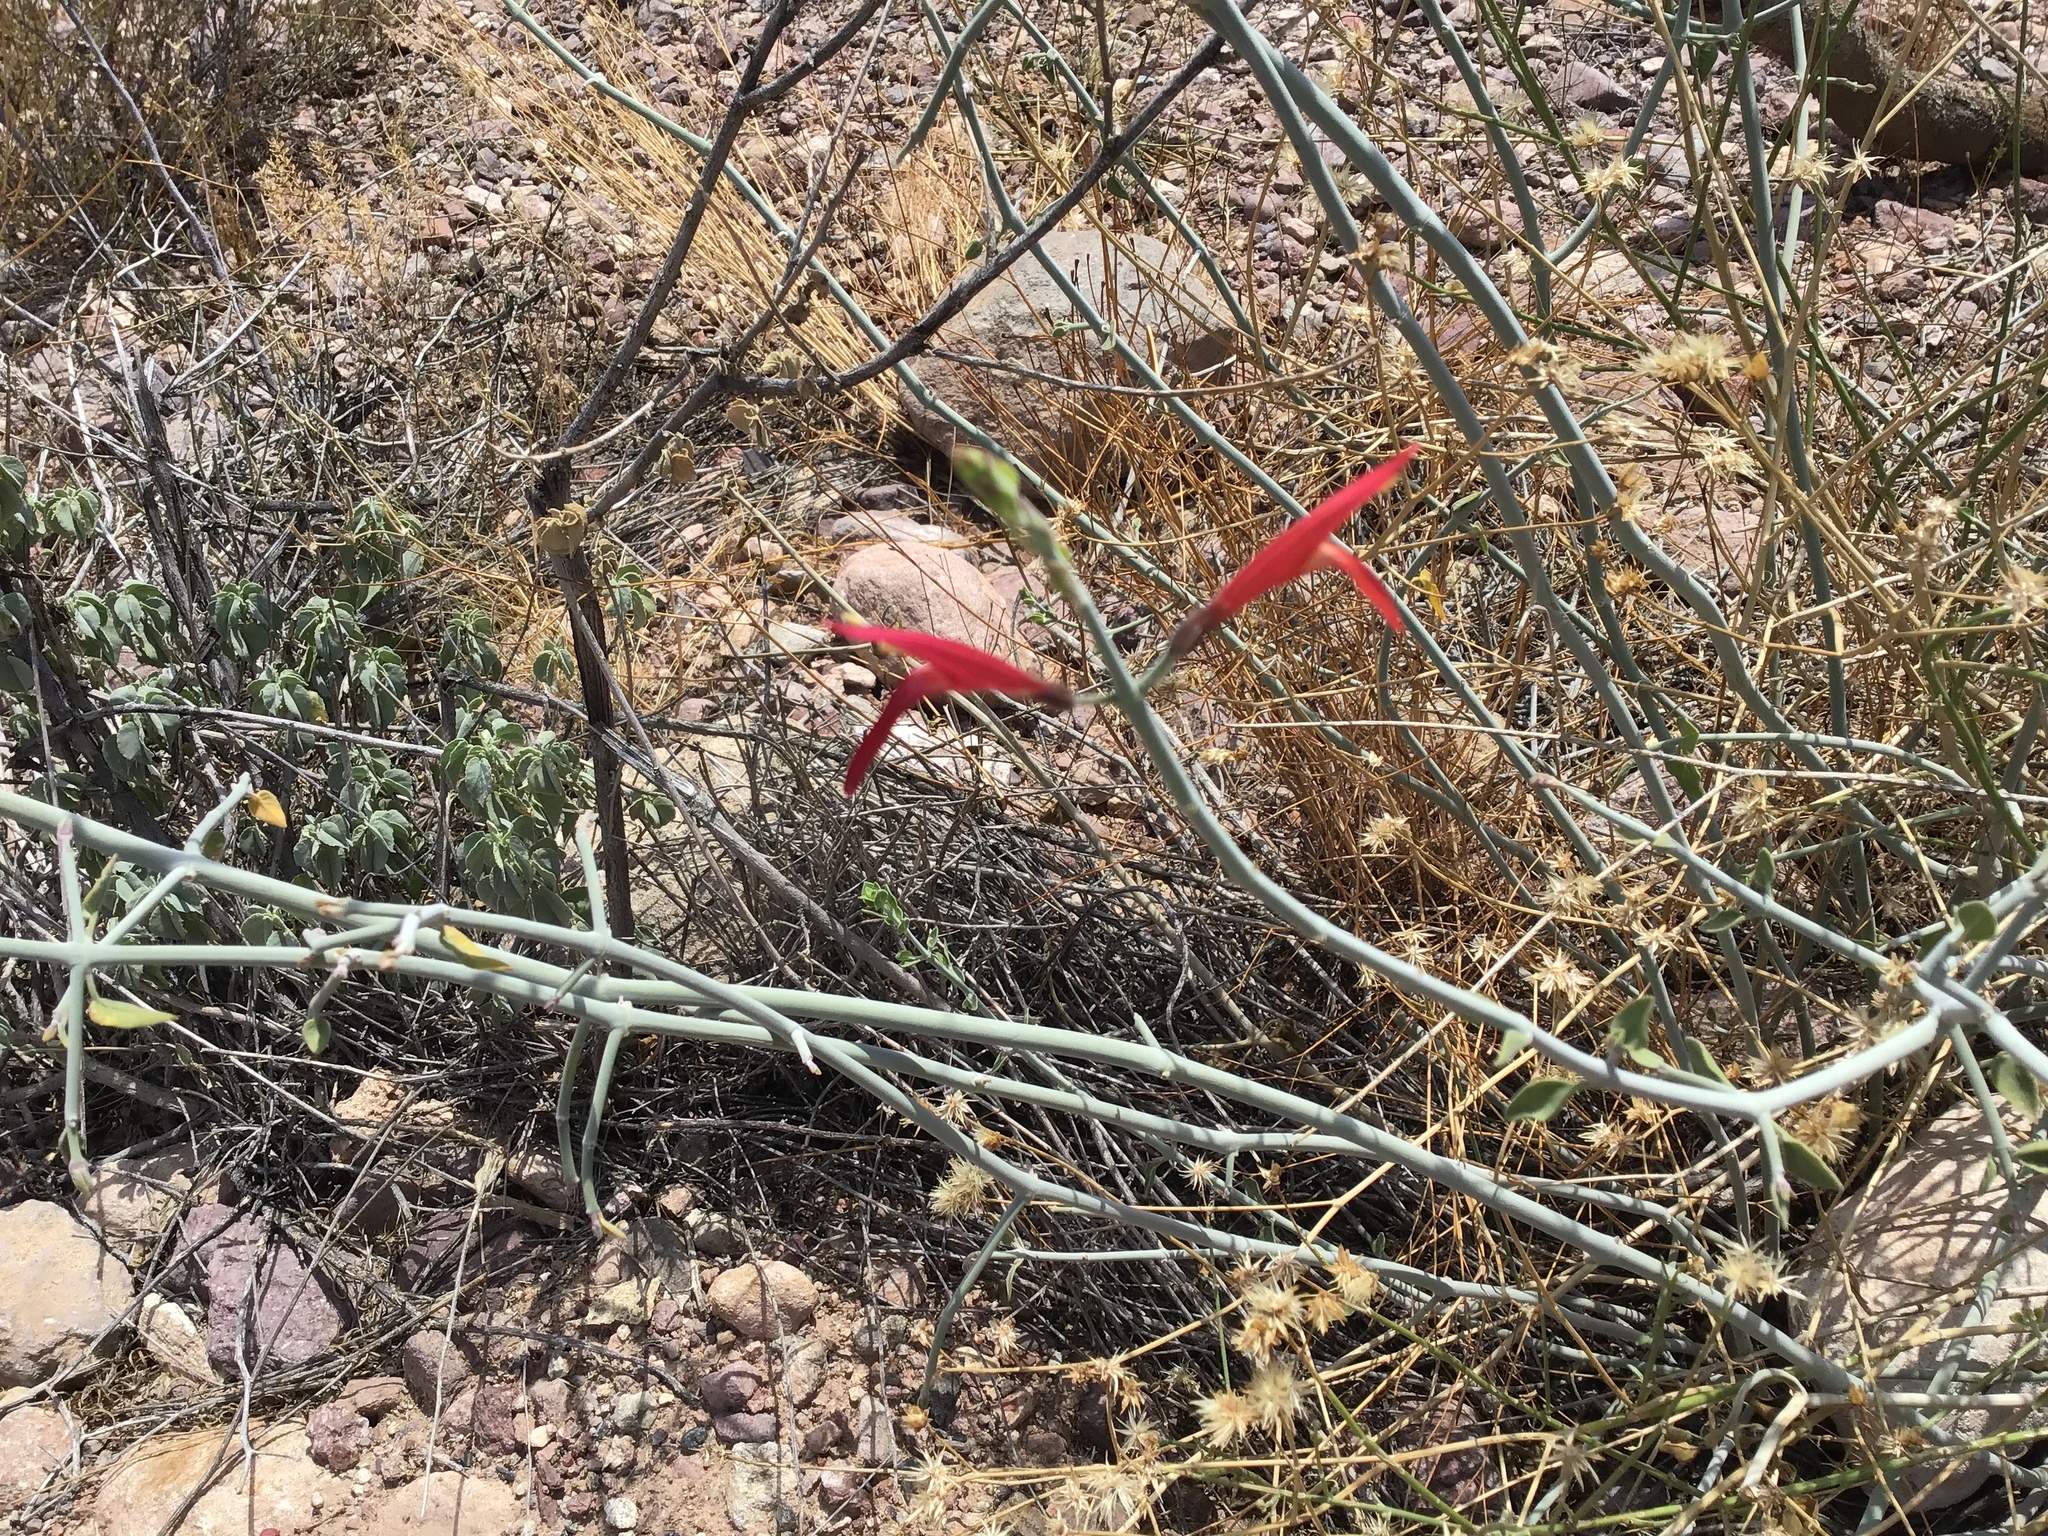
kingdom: Plantae
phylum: Tracheophyta
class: Magnoliopsida
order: Lamiales
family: Acanthaceae
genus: Justicia
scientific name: Justicia californica
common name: Chuparosa-honeysuckle
